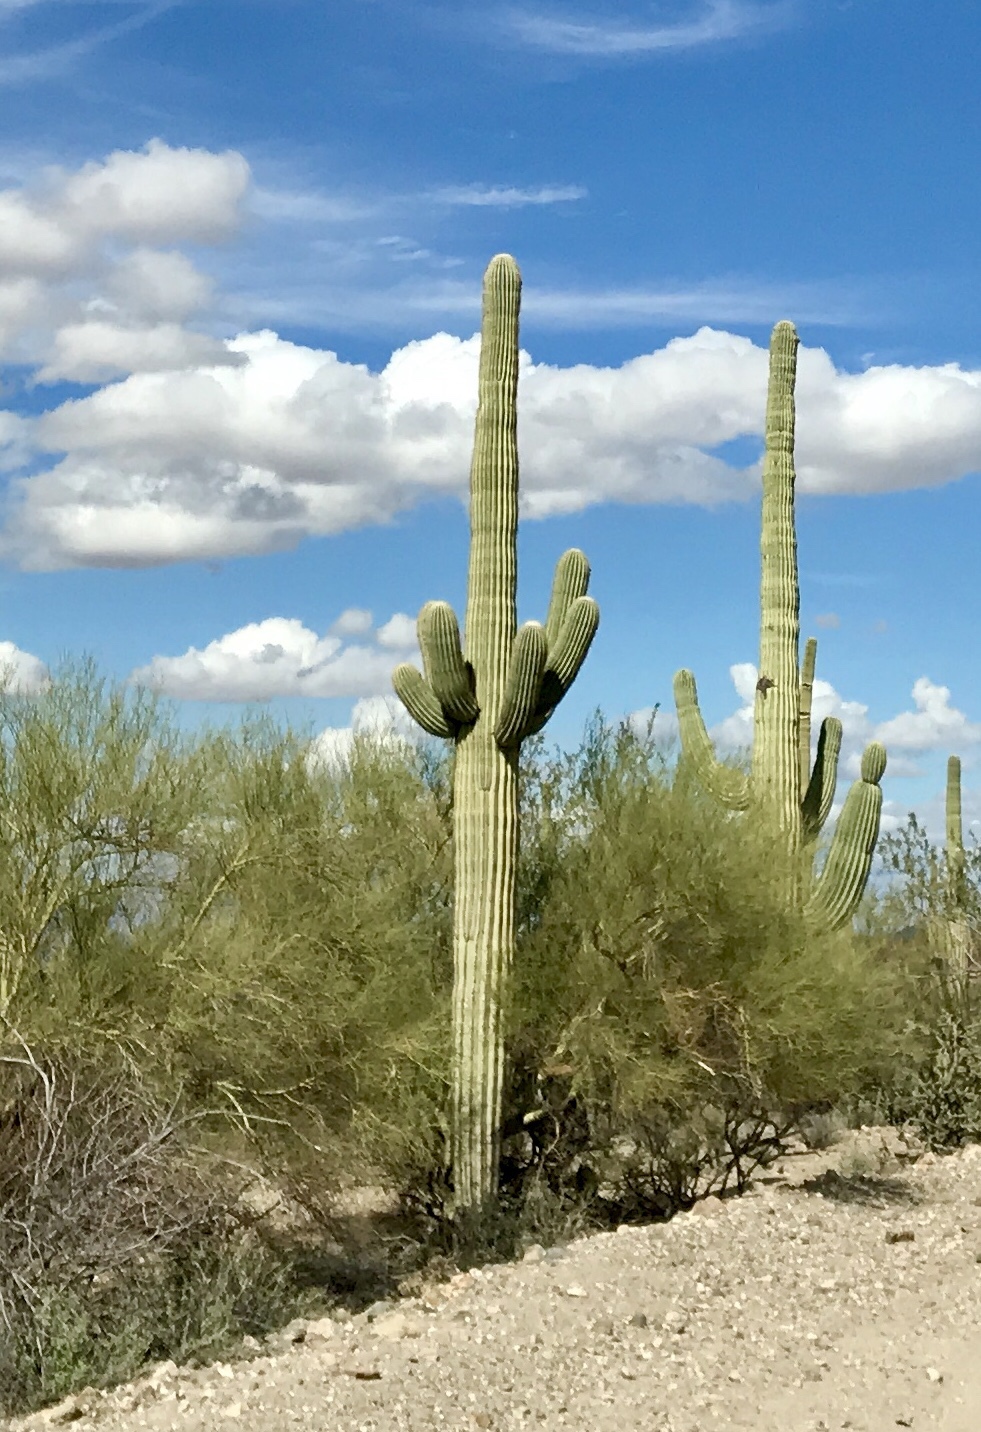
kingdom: Plantae
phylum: Tracheophyta
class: Magnoliopsida
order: Caryophyllales
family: Cactaceae
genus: Carnegiea
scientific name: Carnegiea gigantea
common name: Saguaro
